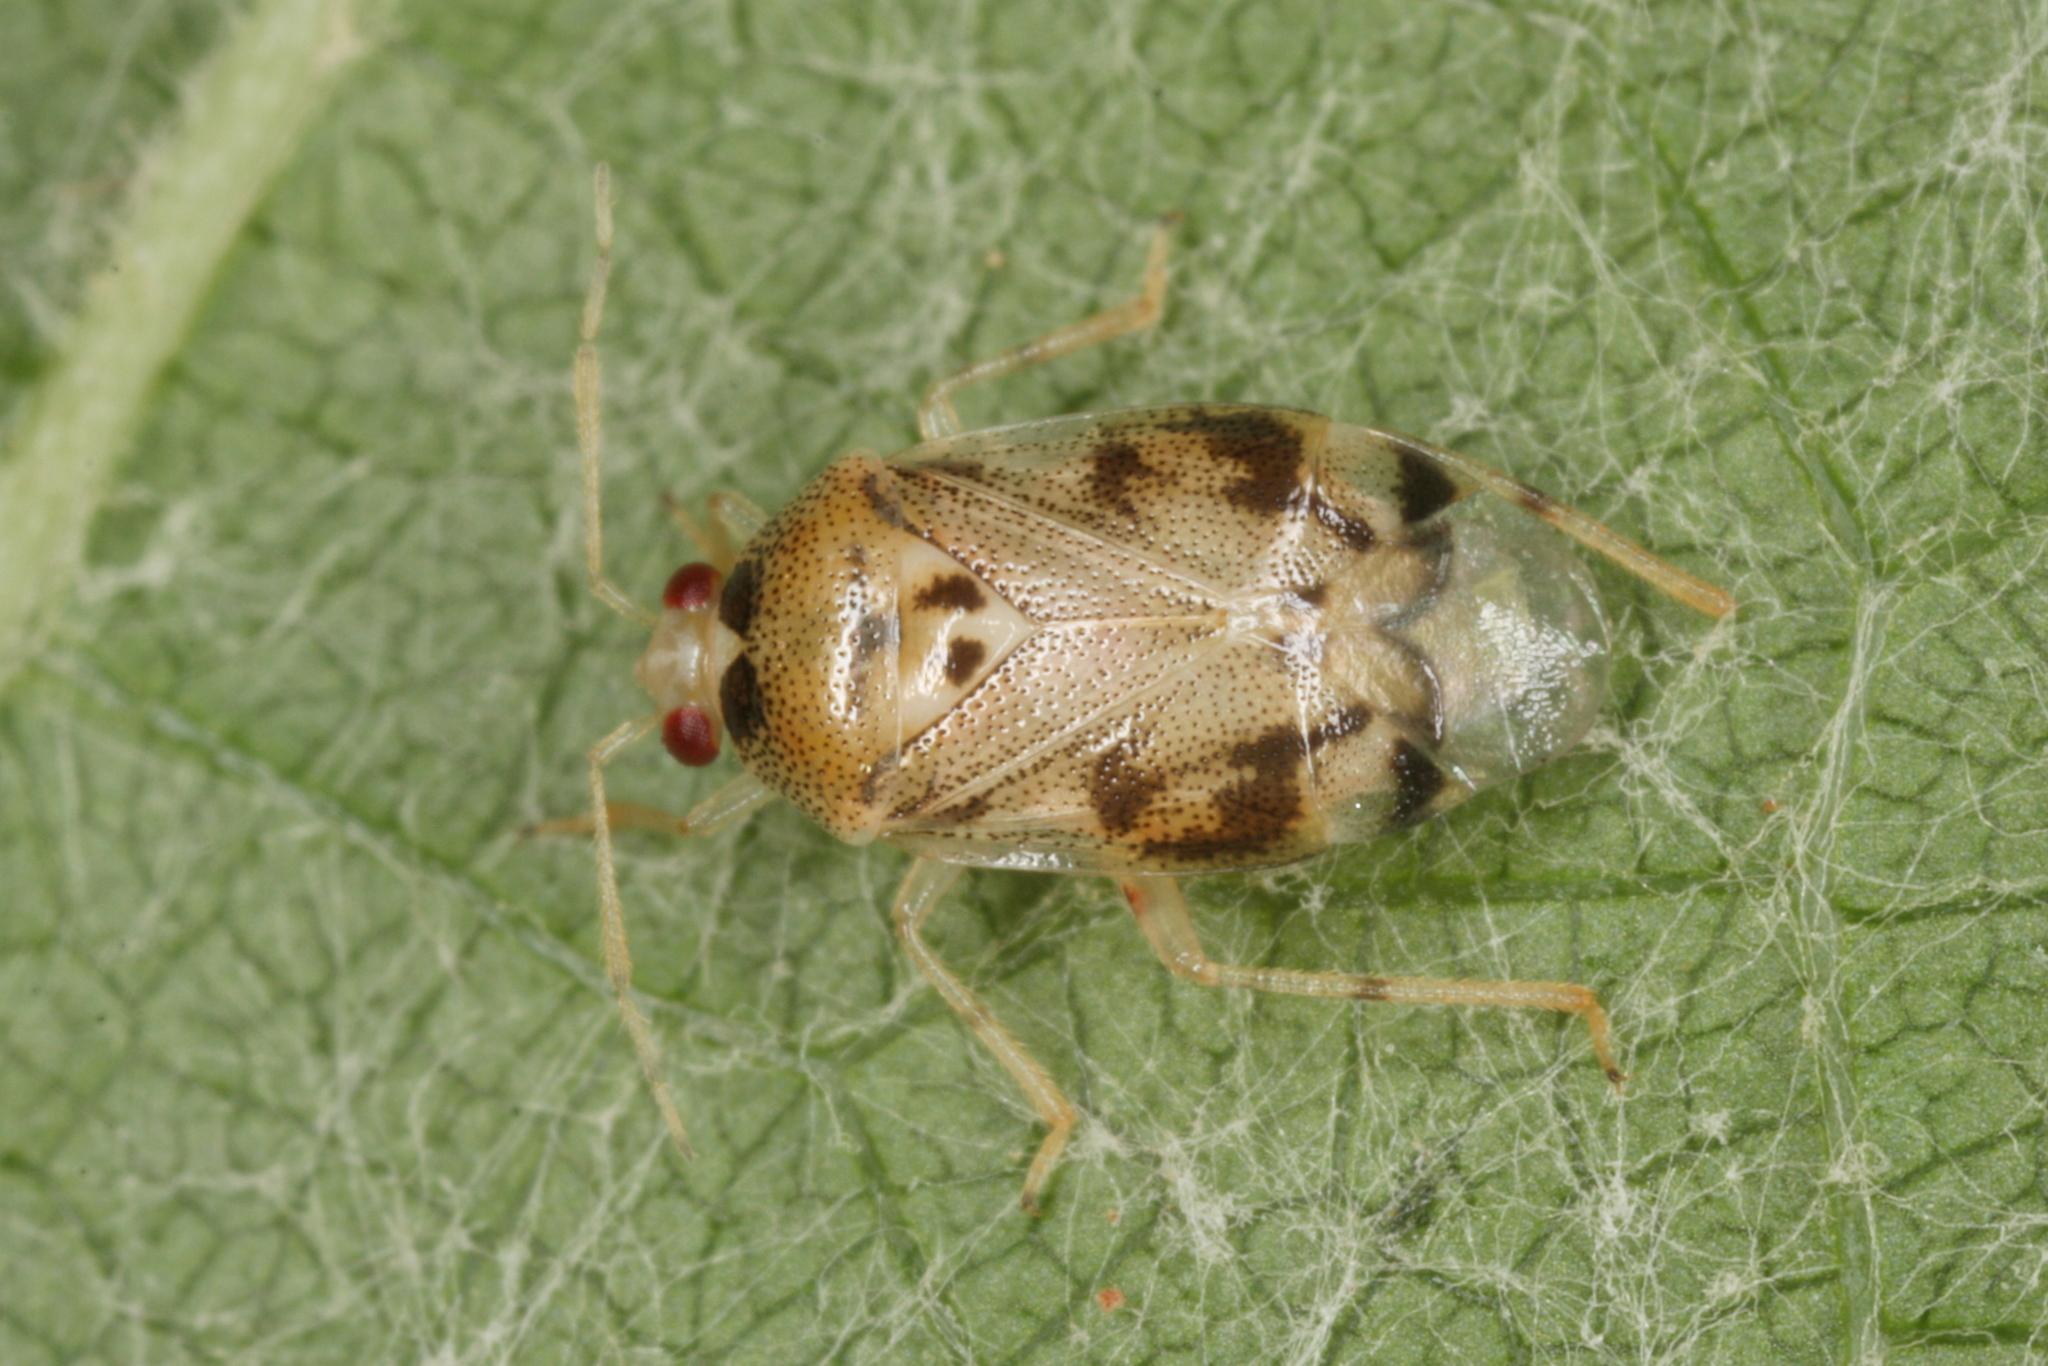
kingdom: Animalia
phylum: Arthropoda
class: Insecta
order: Hemiptera
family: Miridae
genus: Deraeocoris
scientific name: Deraeocoris lutescens
